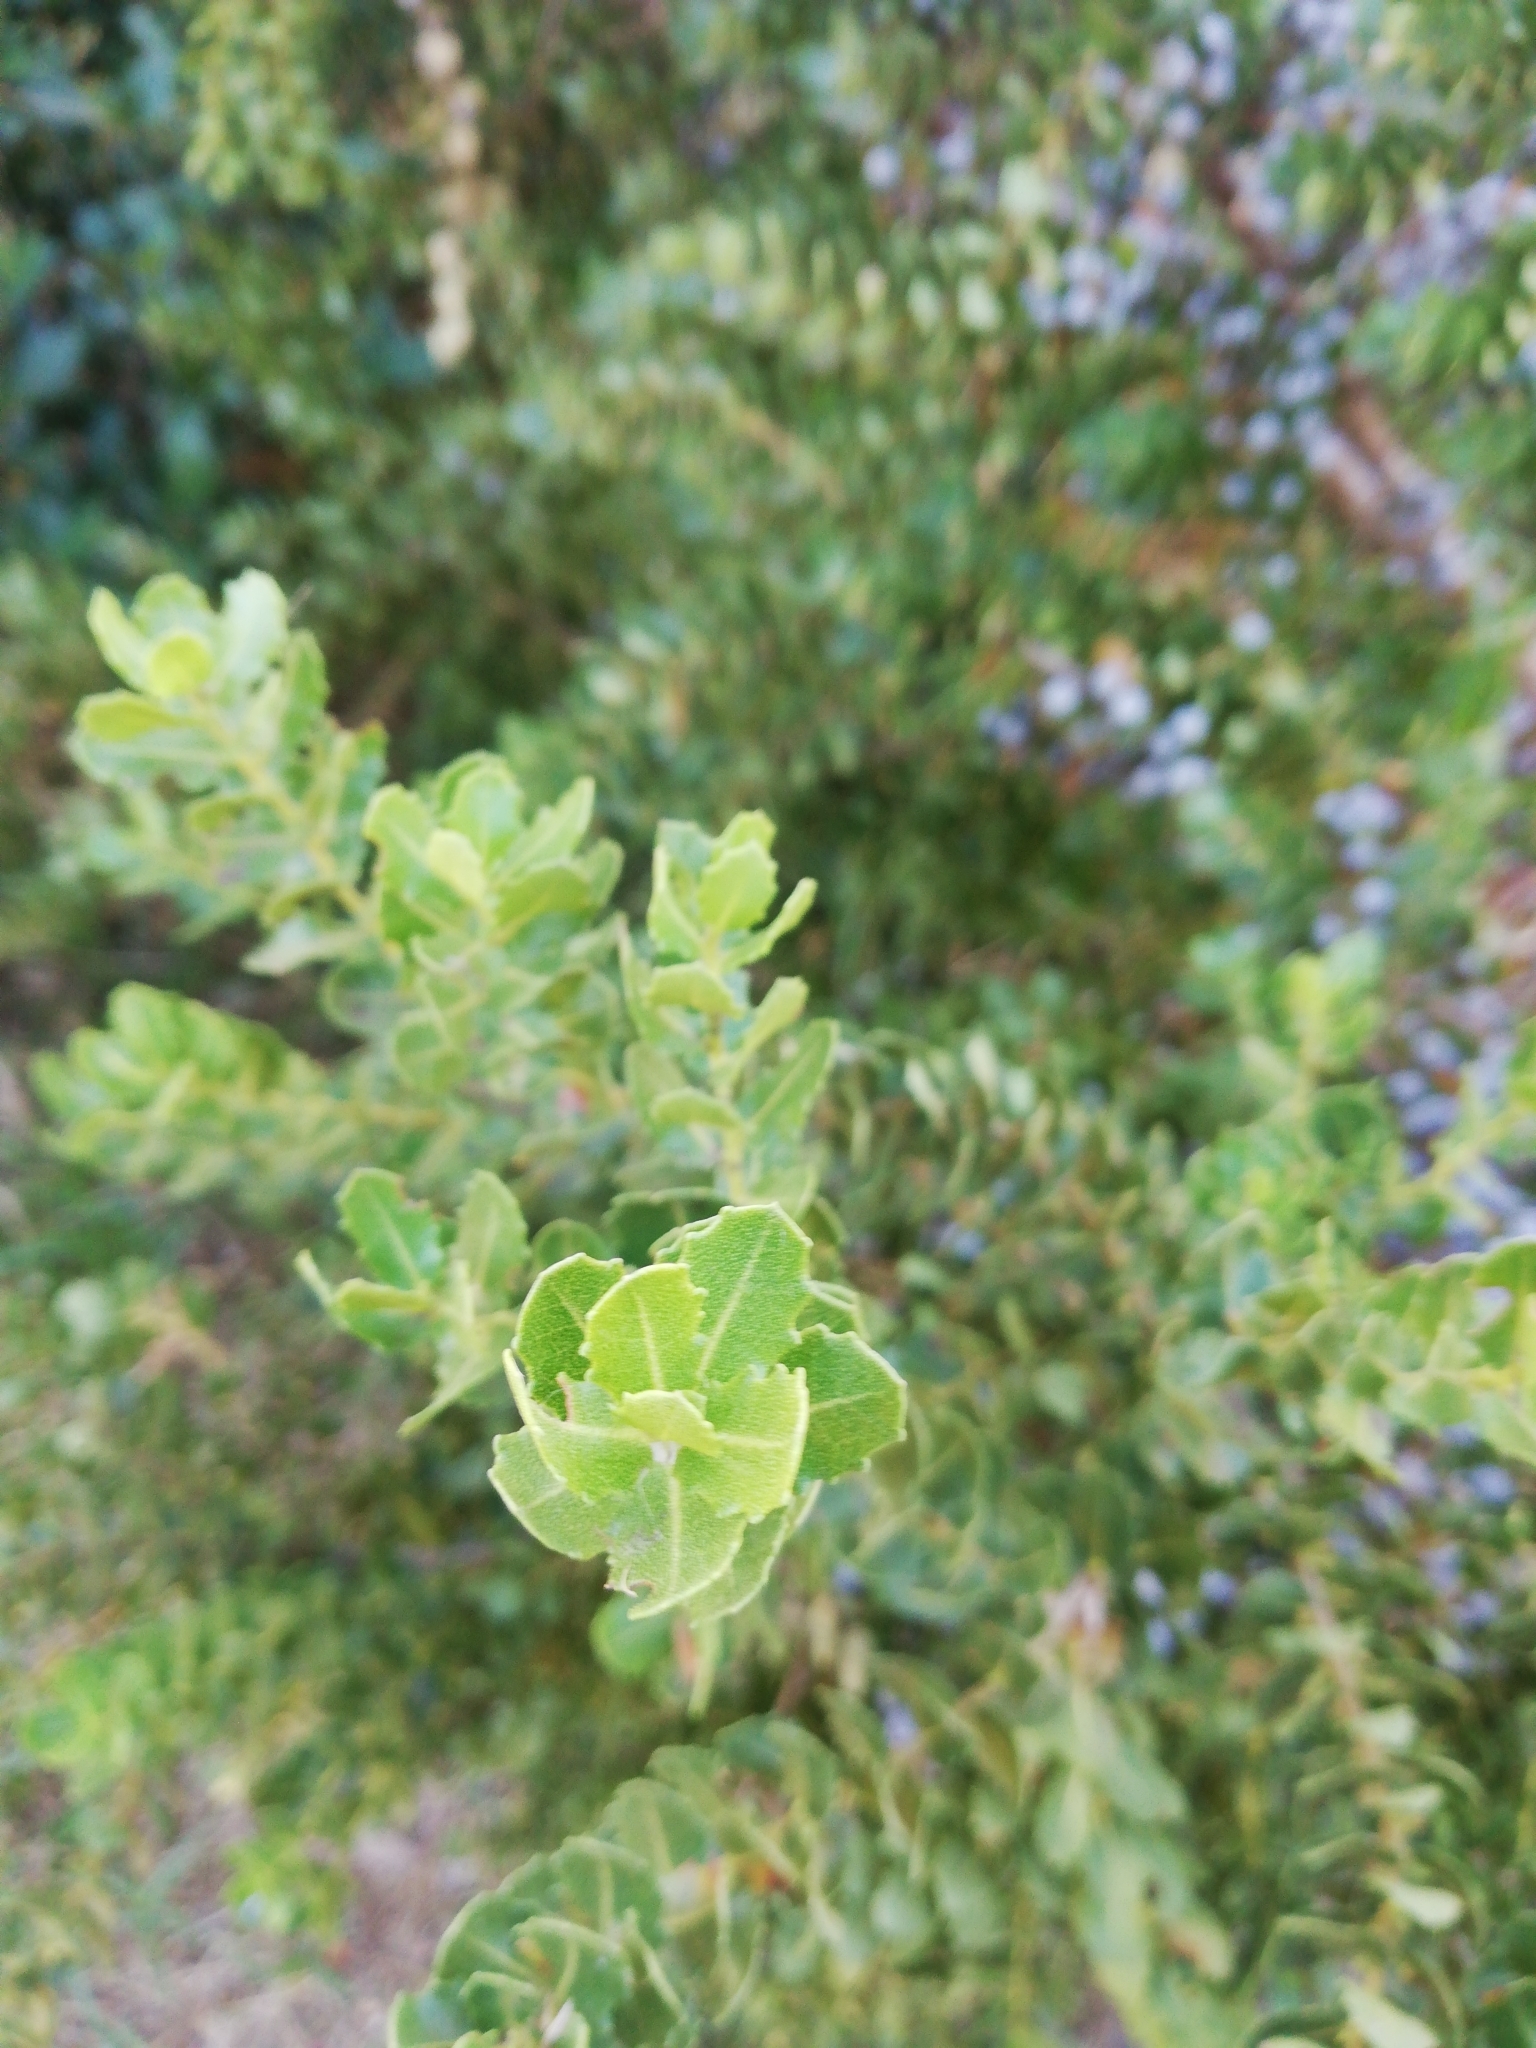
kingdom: Plantae
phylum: Tracheophyta
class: Magnoliopsida
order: Fagales
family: Myricaceae
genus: Morella
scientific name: Morella cordifolia
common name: Waxberry
